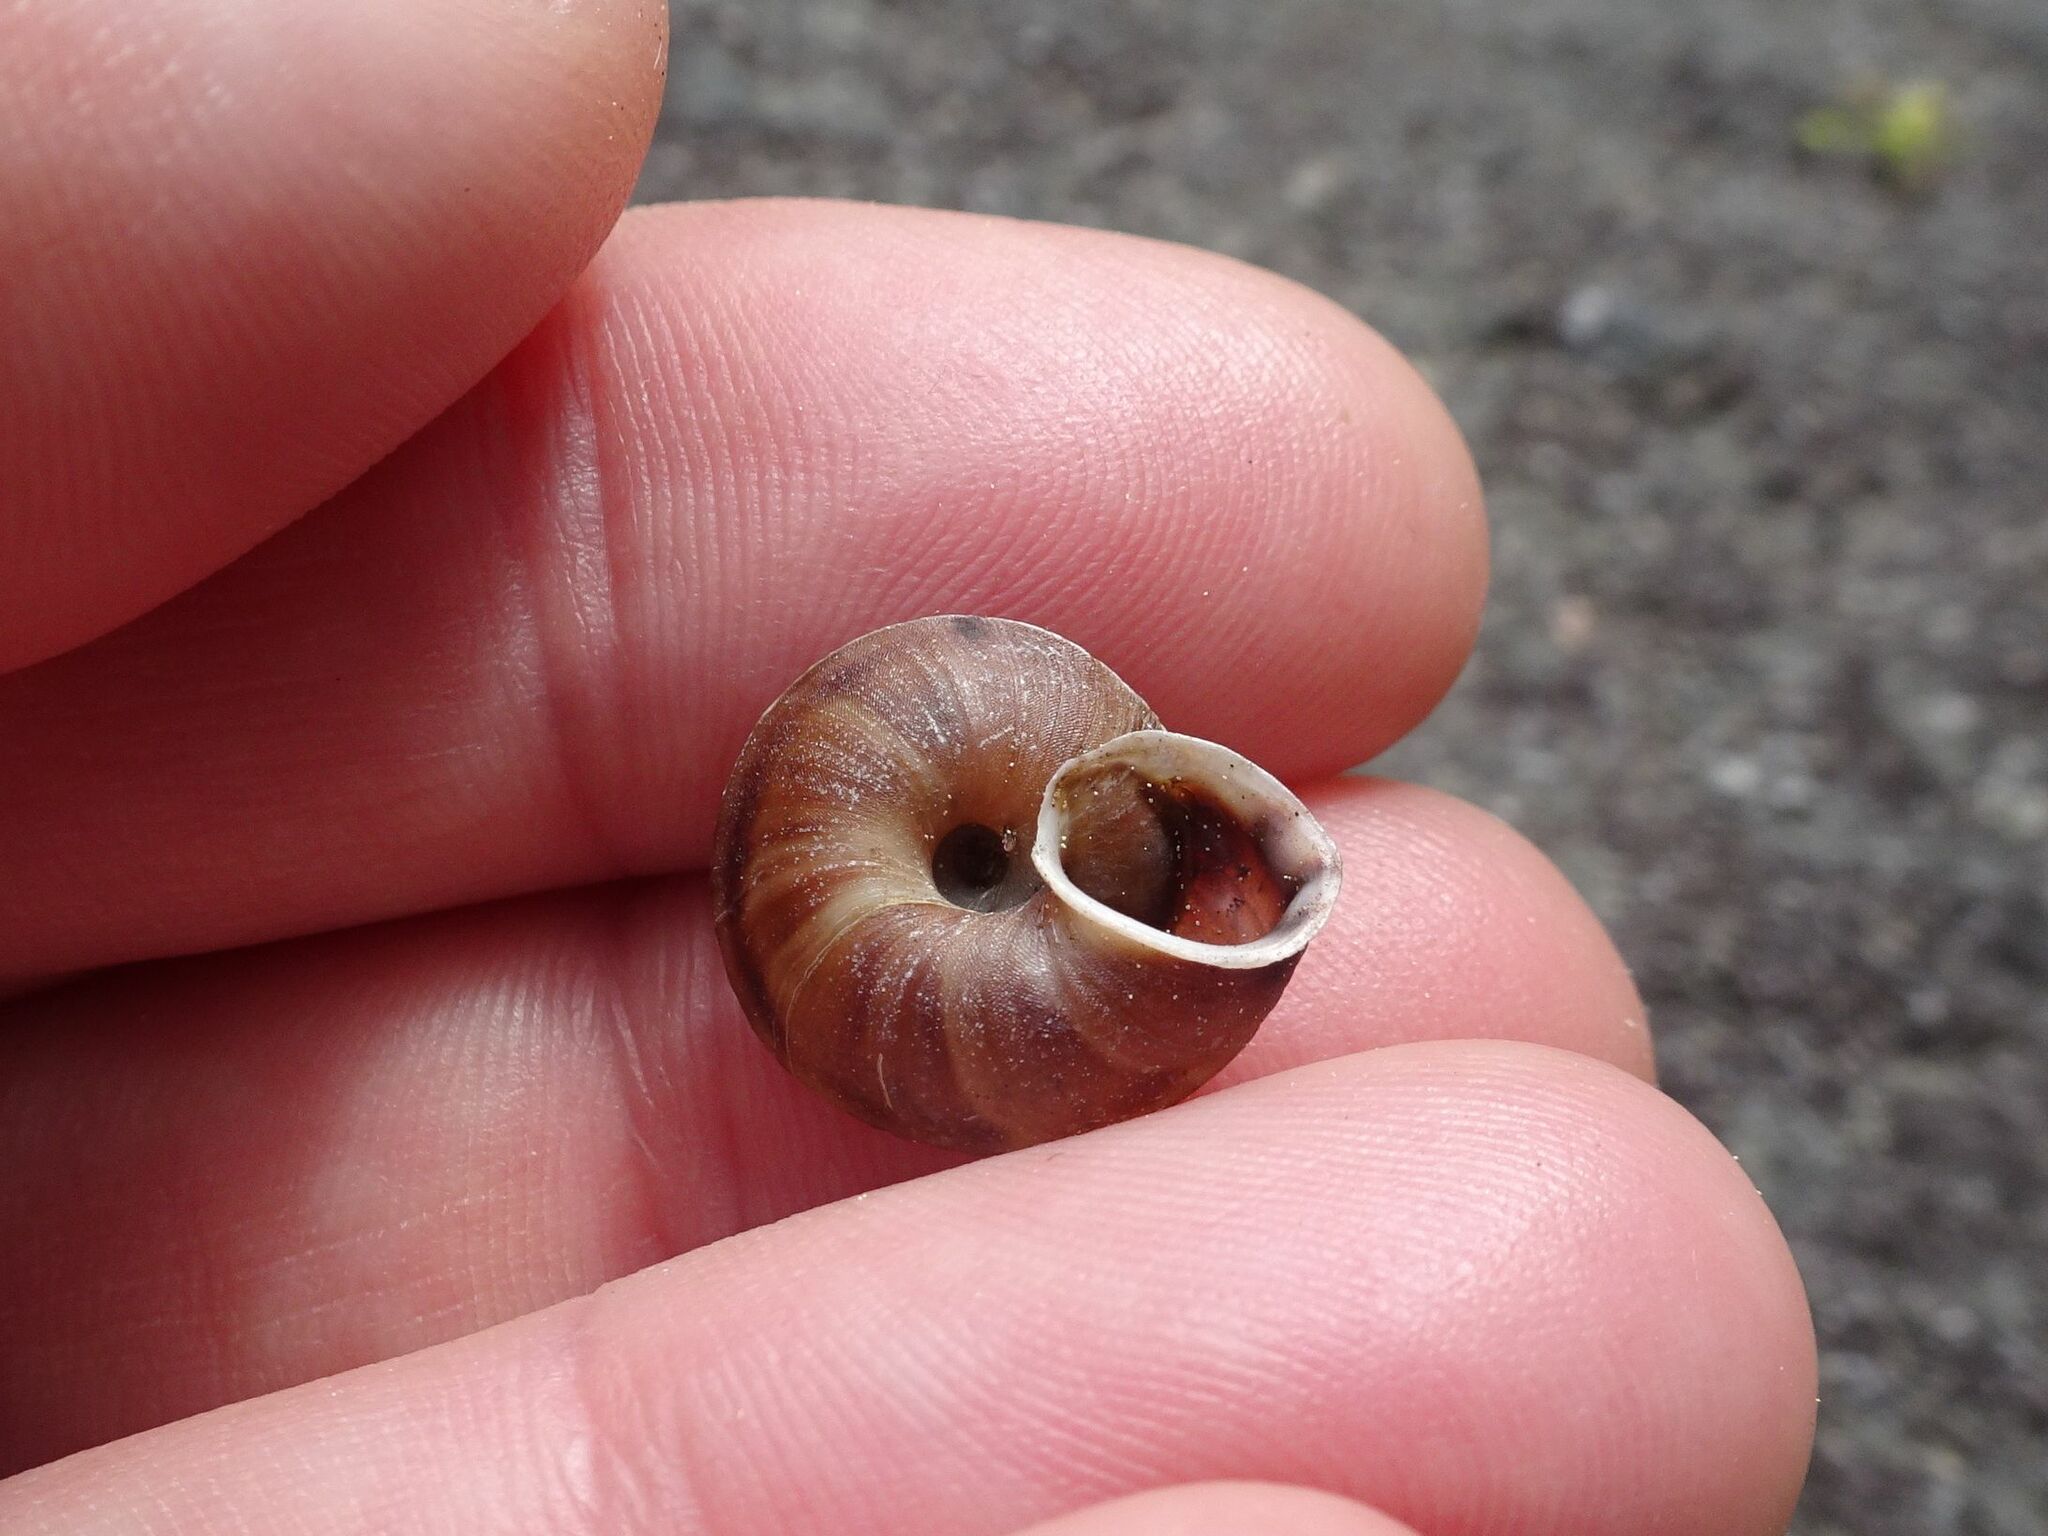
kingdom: Animalia
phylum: Mollusca
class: Gastropoda
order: Stylommatophora
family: Helicidae
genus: Helicigona
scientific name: Helicigona lapicida
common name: Lapidary snail
